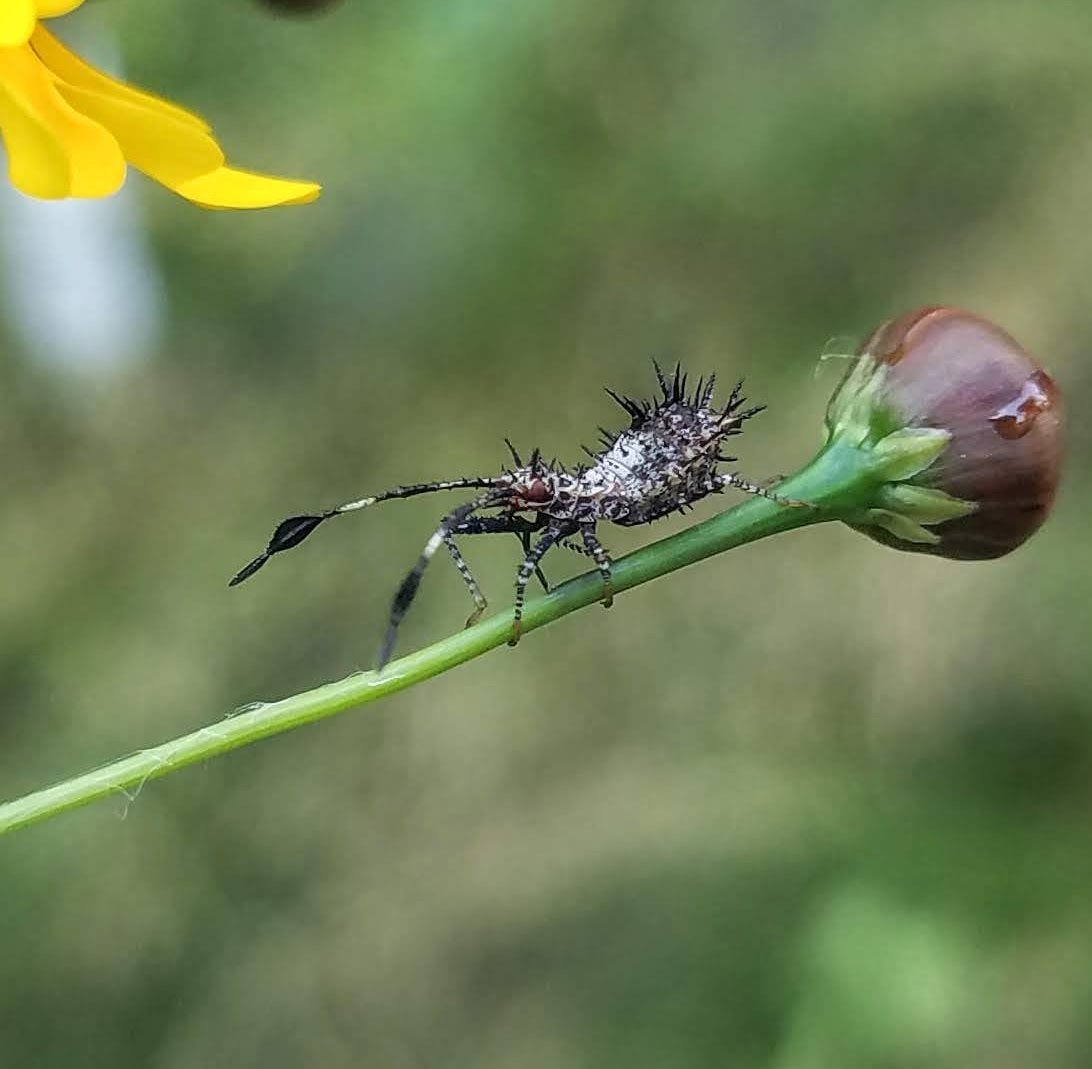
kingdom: Animalia
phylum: Arthropoda
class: Insecta
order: Hemiptera
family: Coreidae
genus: Euthochtha
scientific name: Euthochtha galeator
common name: Helmeted squash bug
